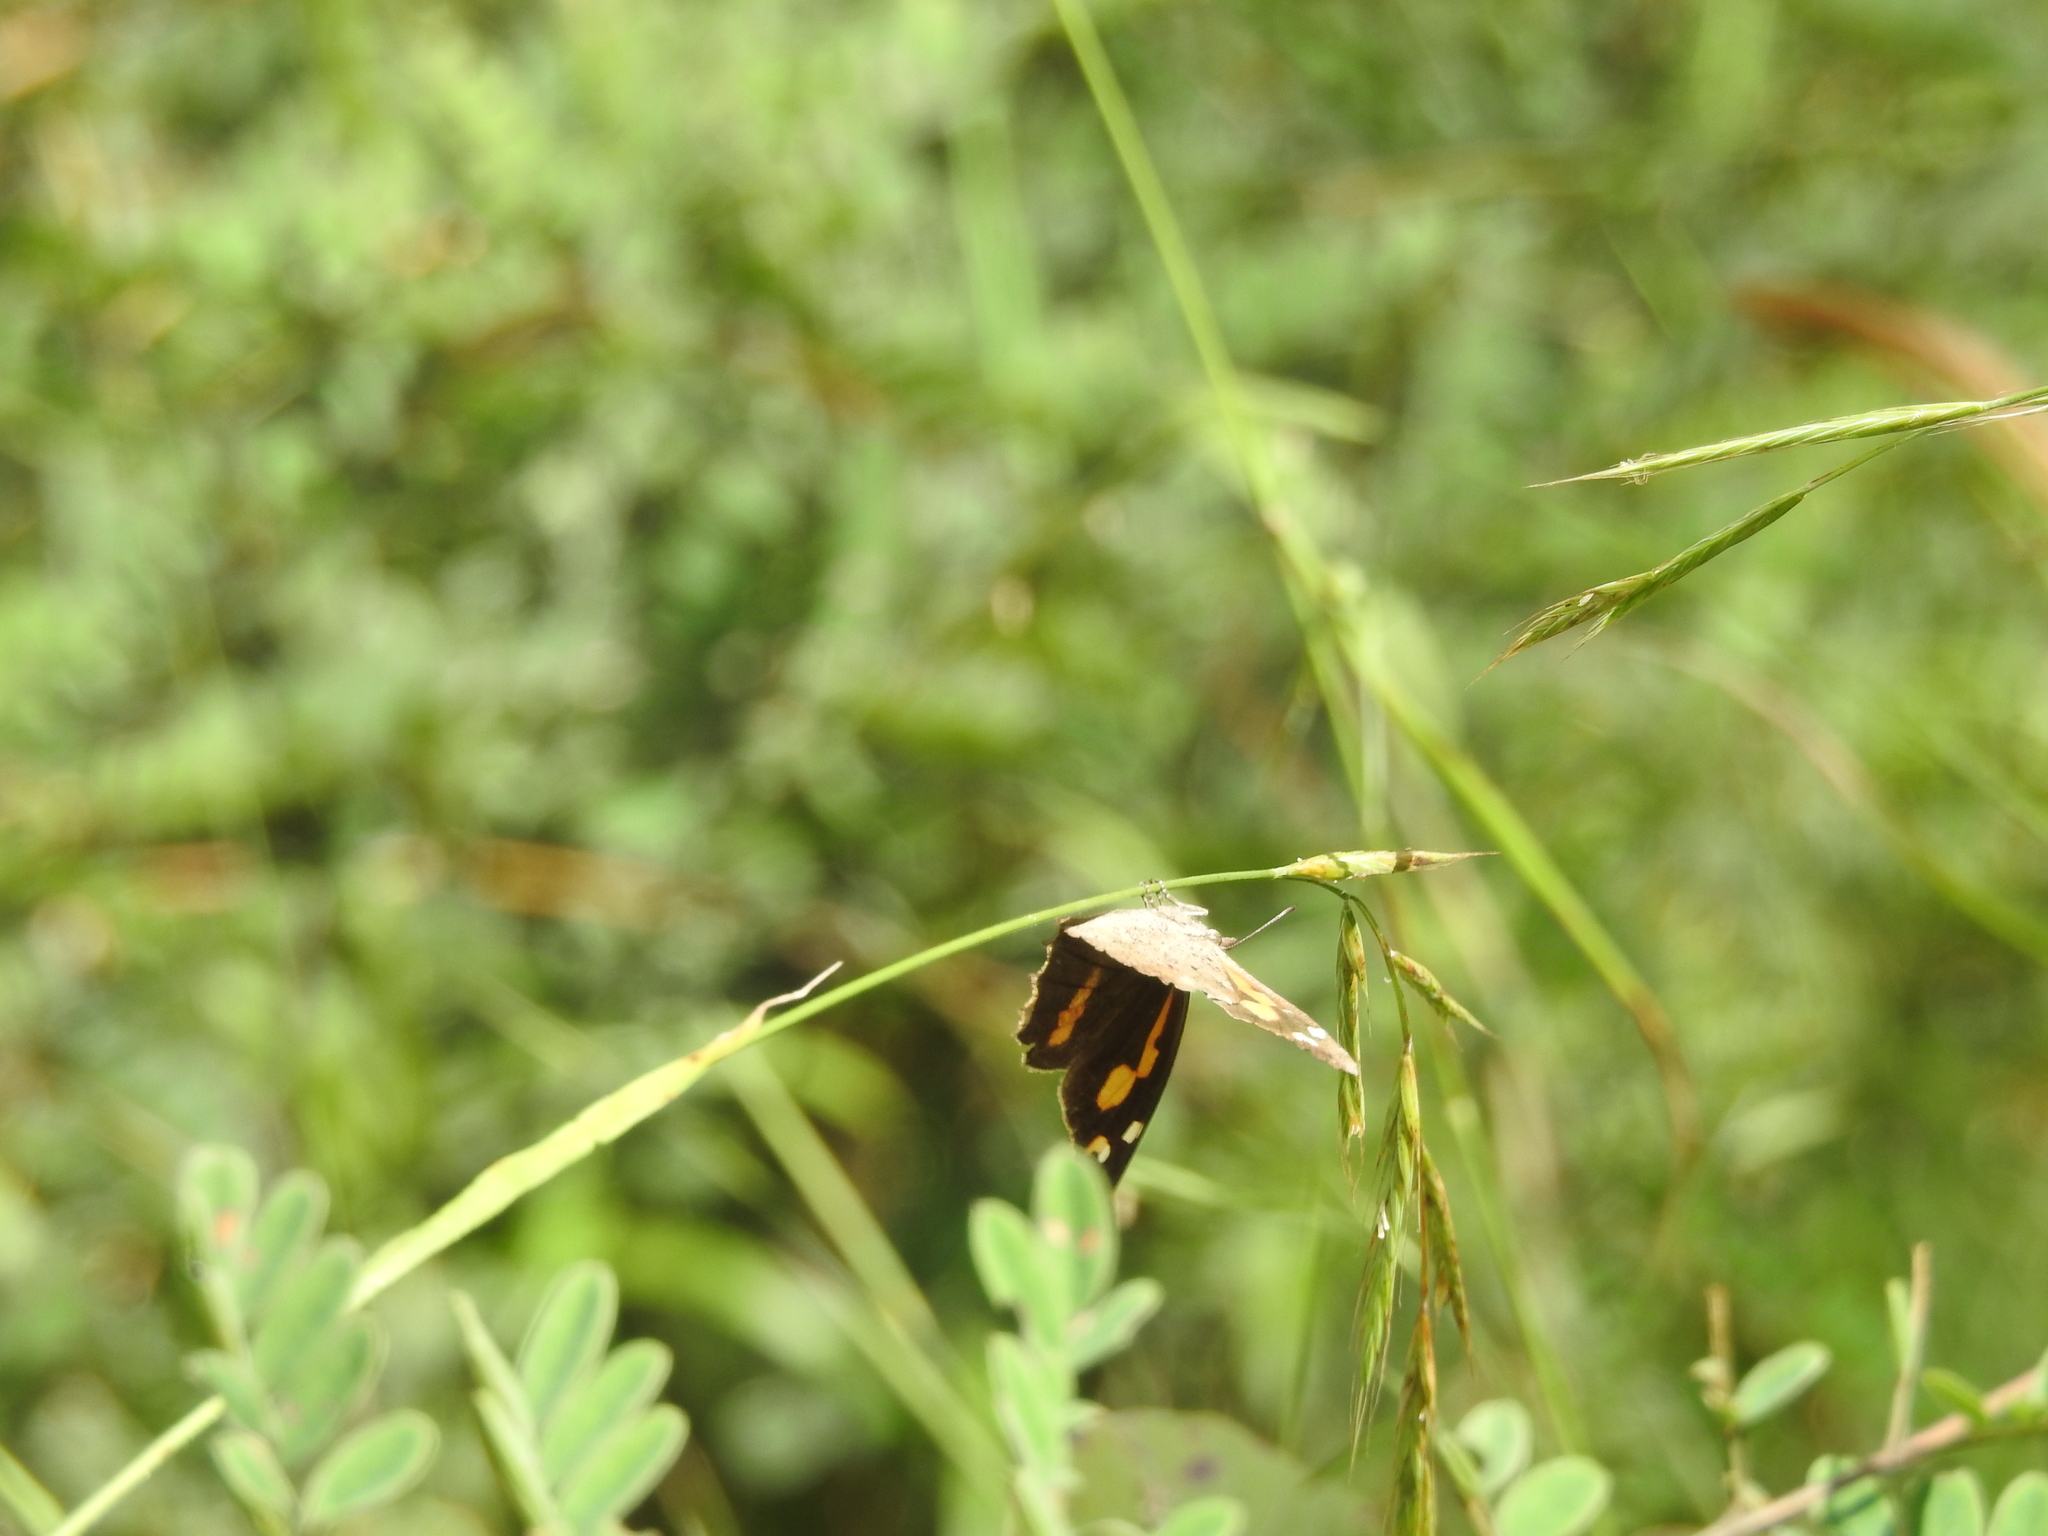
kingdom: Animalia
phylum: Arthropoda
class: Insecta
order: Lepidoptera
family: Nymphalidae
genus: Libythea
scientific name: Libythea lepita
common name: Common beak
